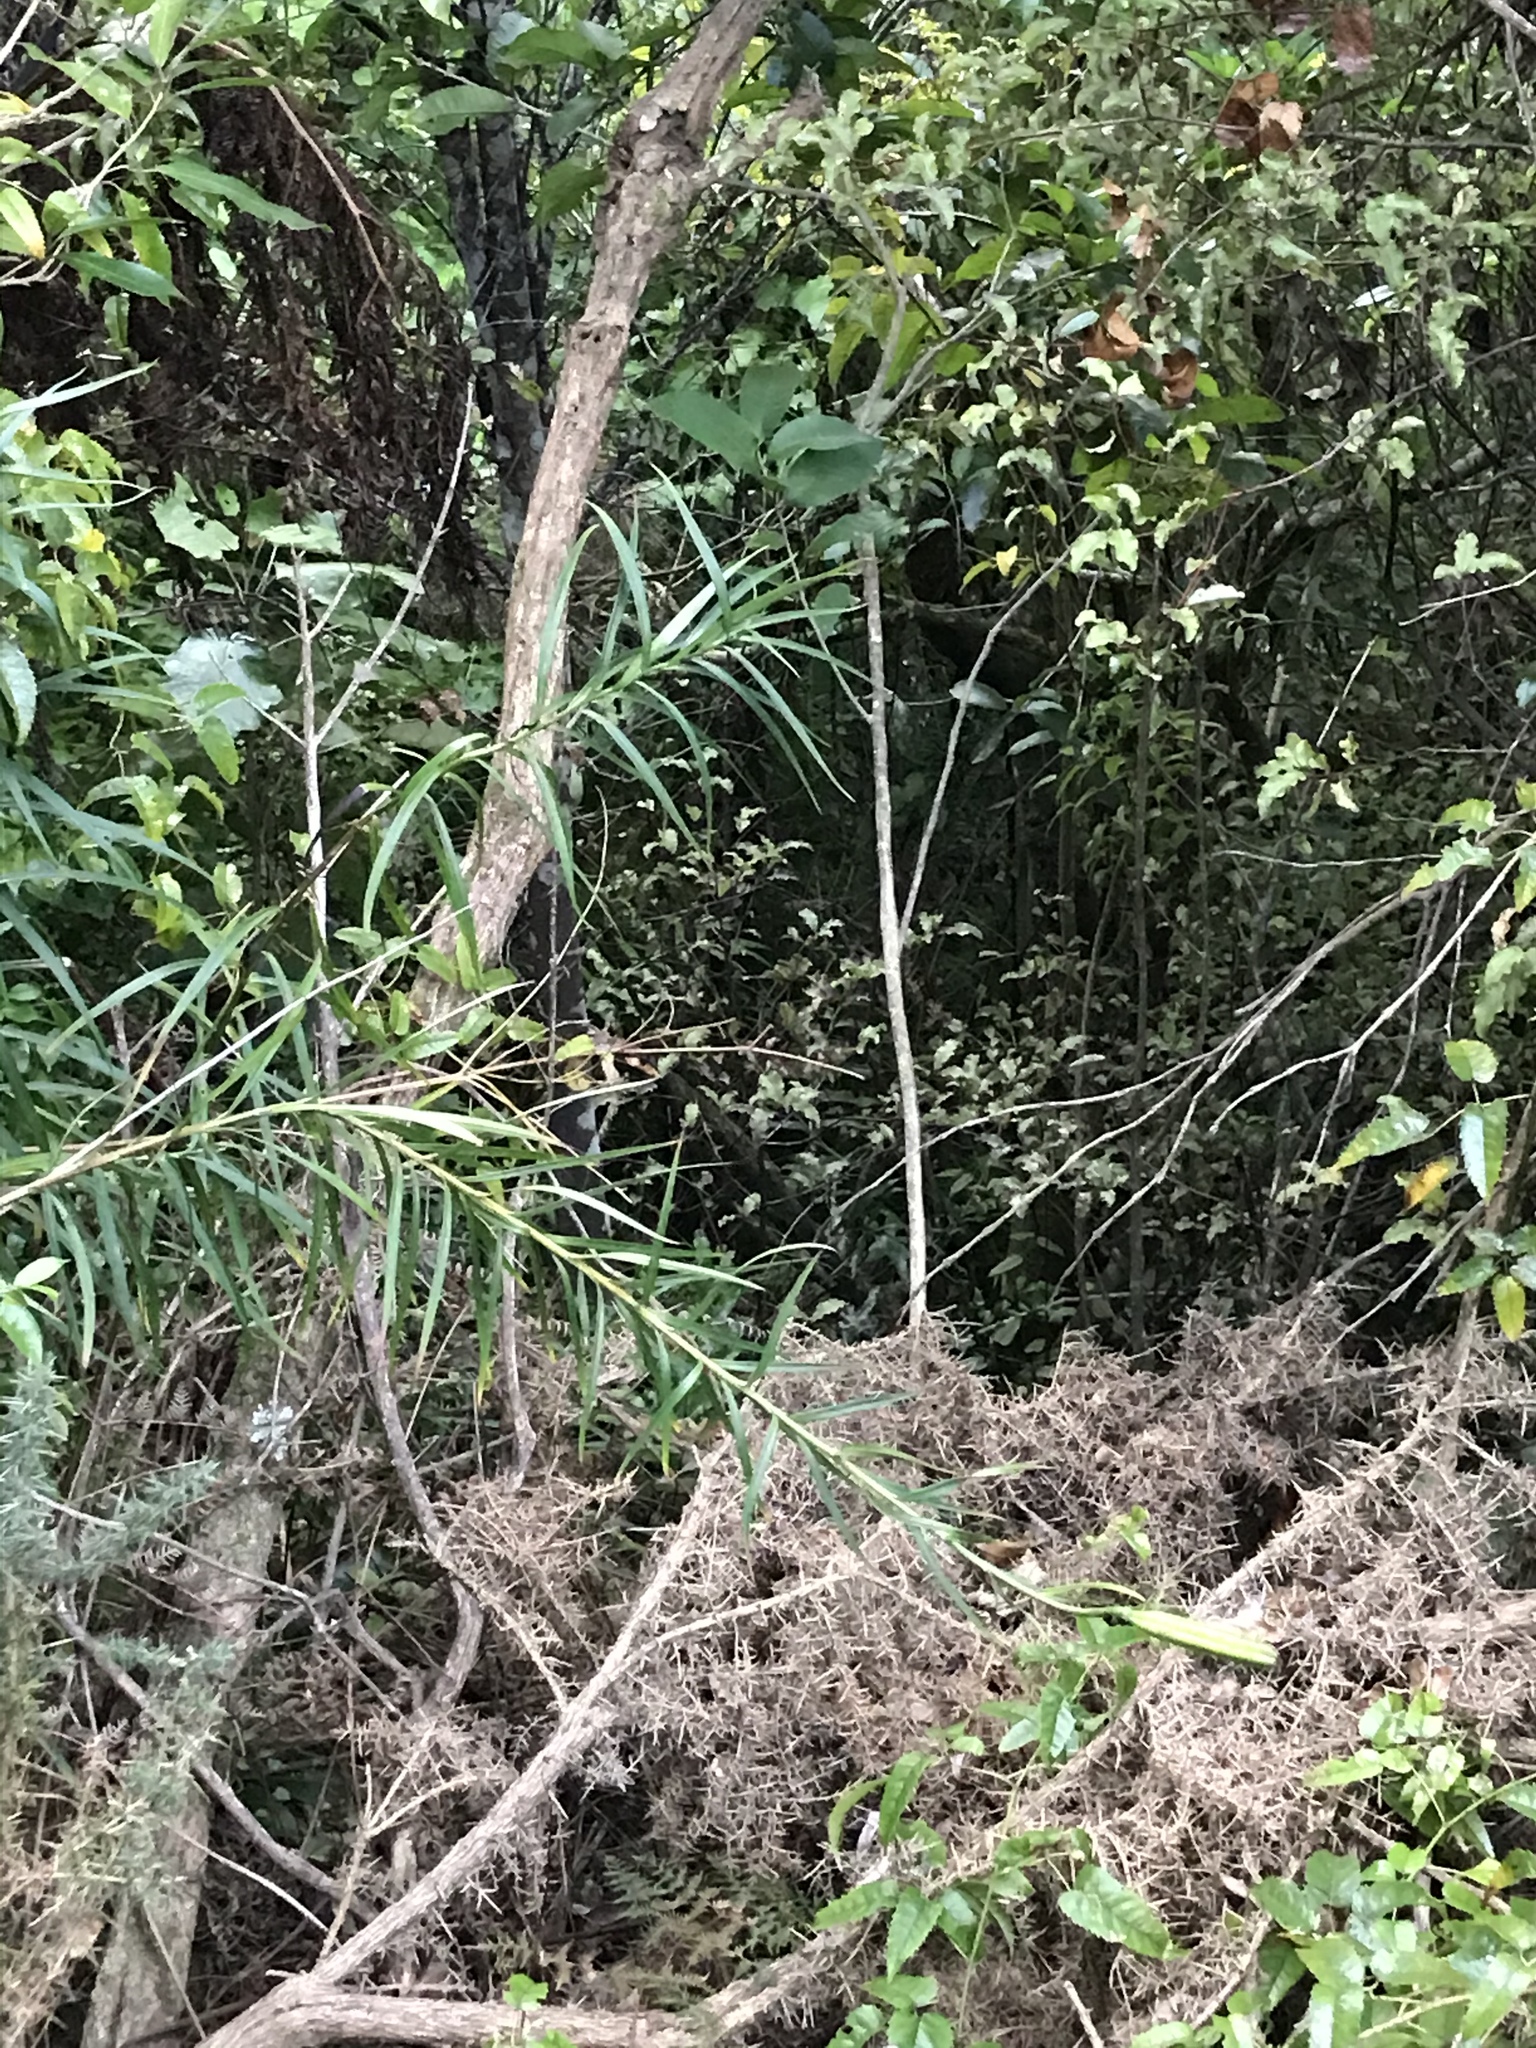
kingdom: Plantae
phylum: Tracheophyta
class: Liliopsida
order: Liliales
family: Liliaceae
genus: Lilium
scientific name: Lilium formosanum
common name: Formosa lily
